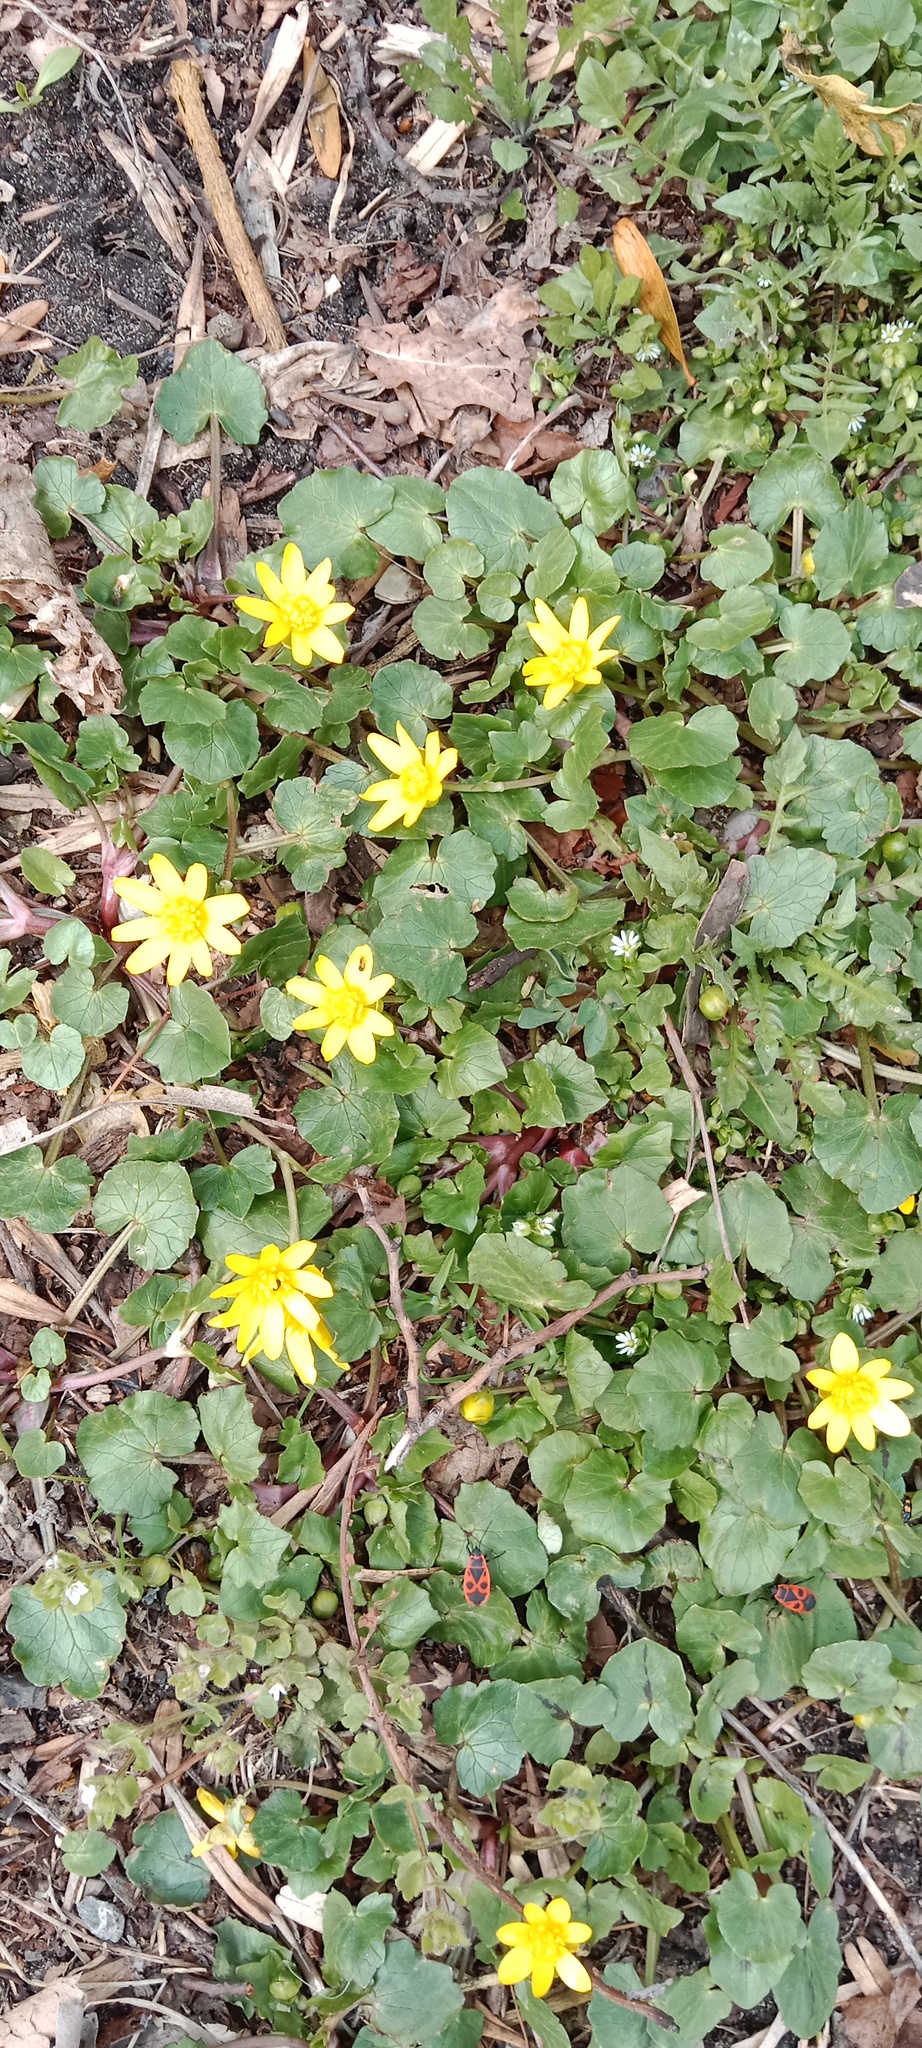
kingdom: Plantae
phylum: Tracheophyta
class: Magnoliopsida
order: Ranunculales
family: Ranunculaceae
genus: Ficaria
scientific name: Ficaria verna
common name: Lesser celandine
